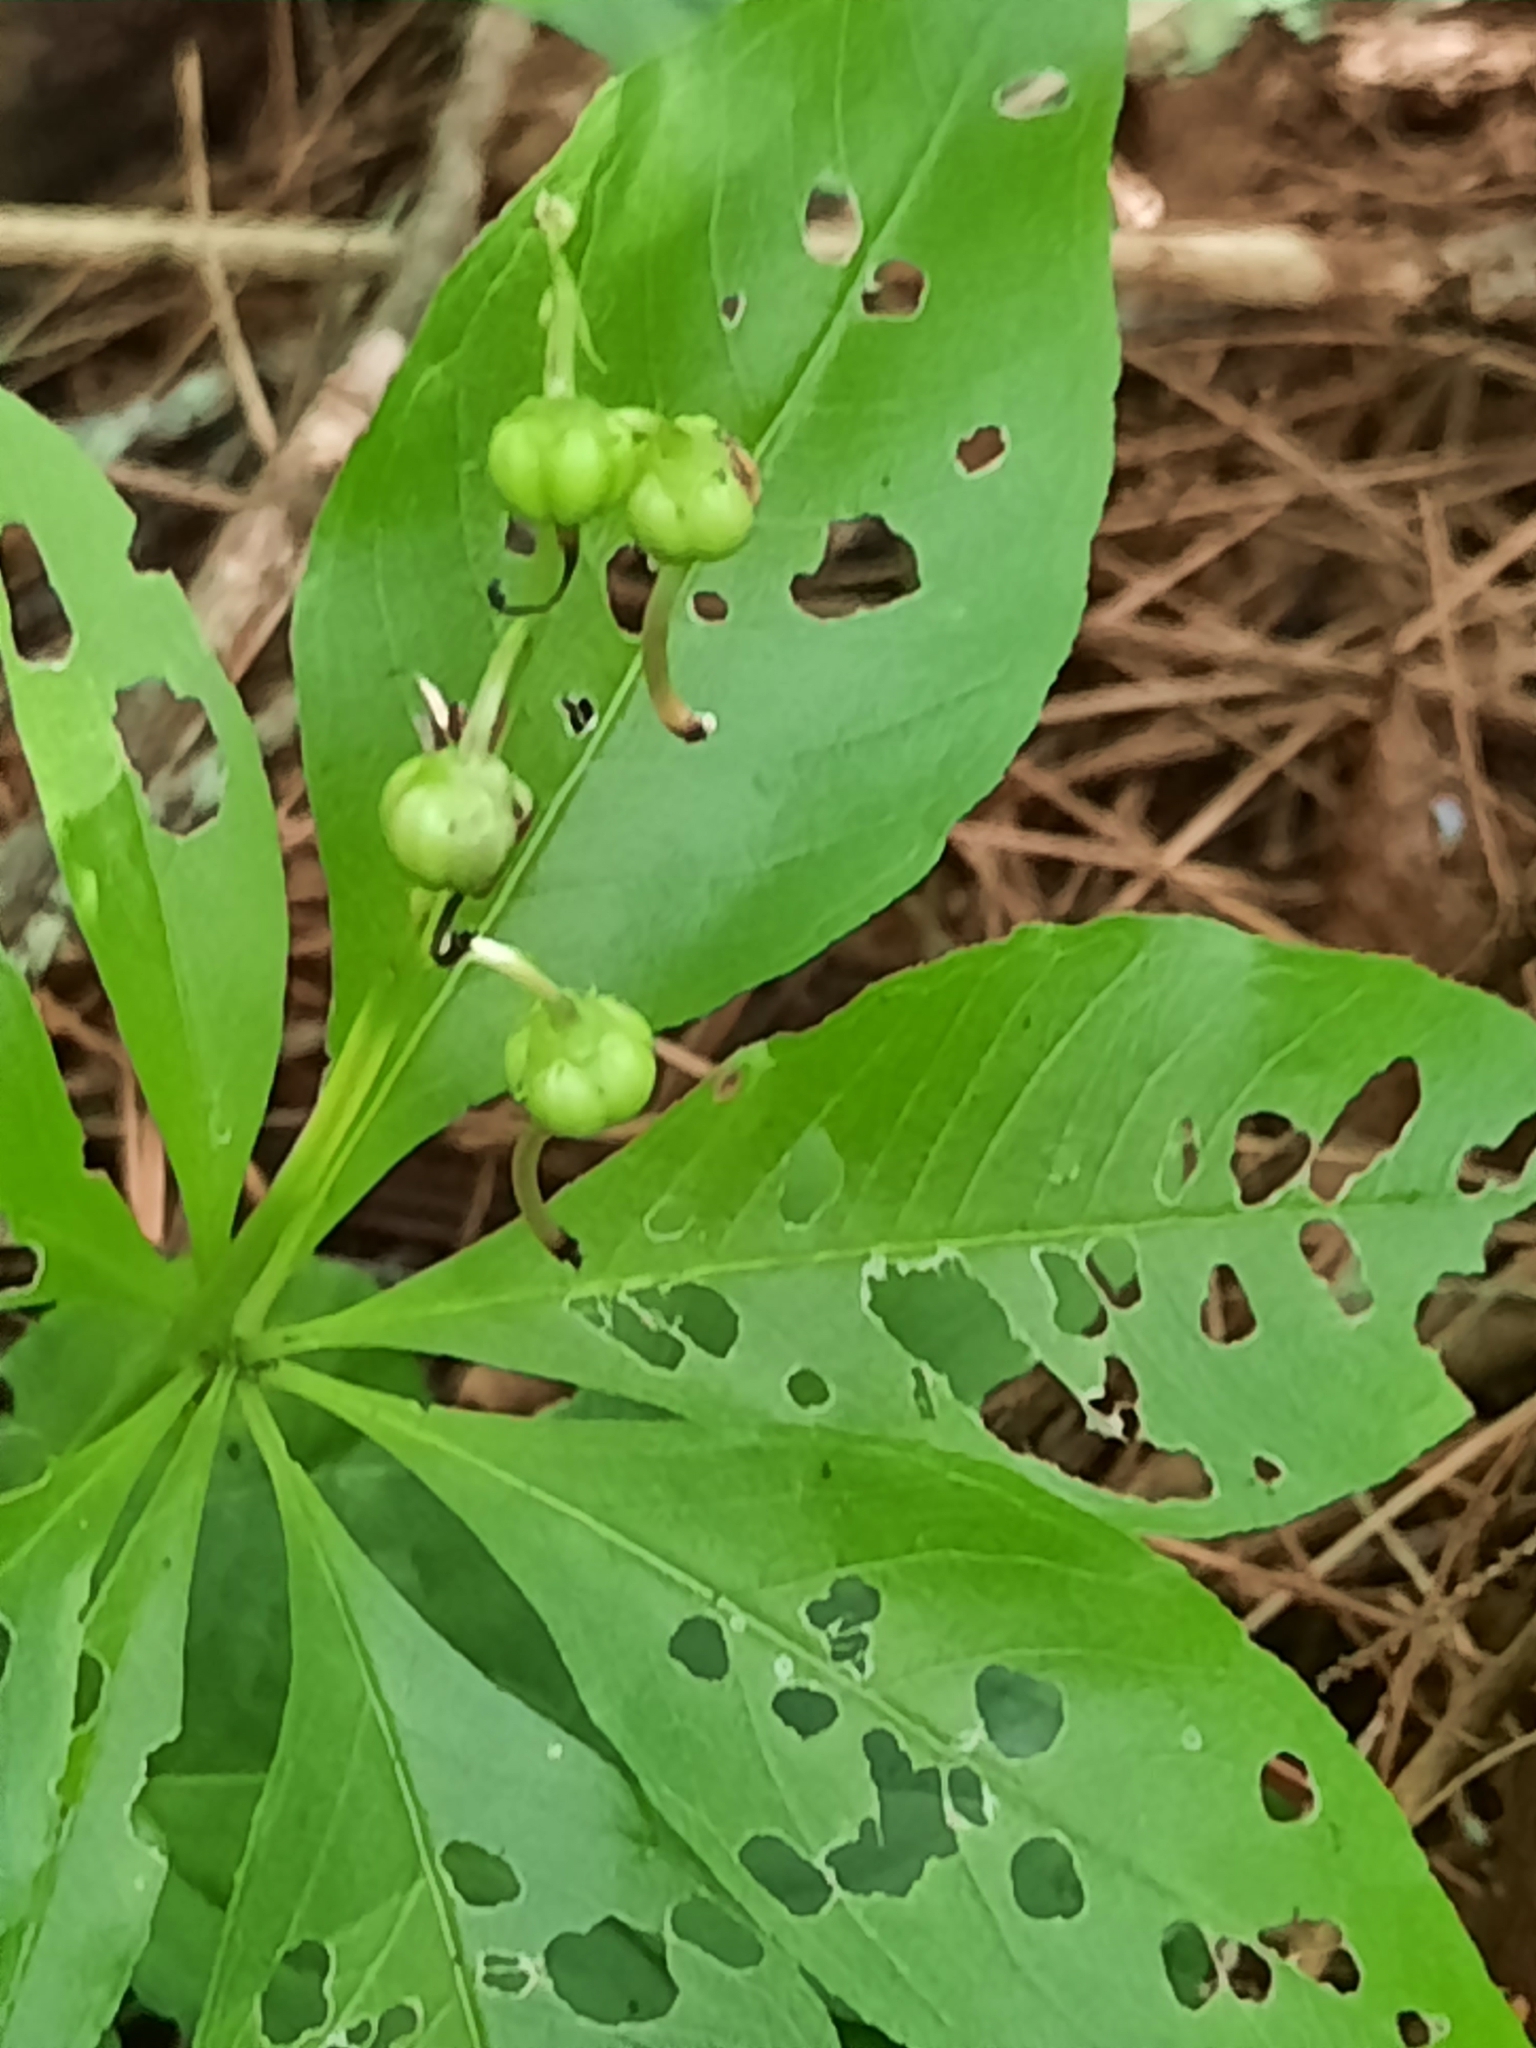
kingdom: Plantae
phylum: Tracheophyta
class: Magnoliopsida
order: Ericales
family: Primulaceae
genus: Lysimachia
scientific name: Lysimachia borealis
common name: American starflower
